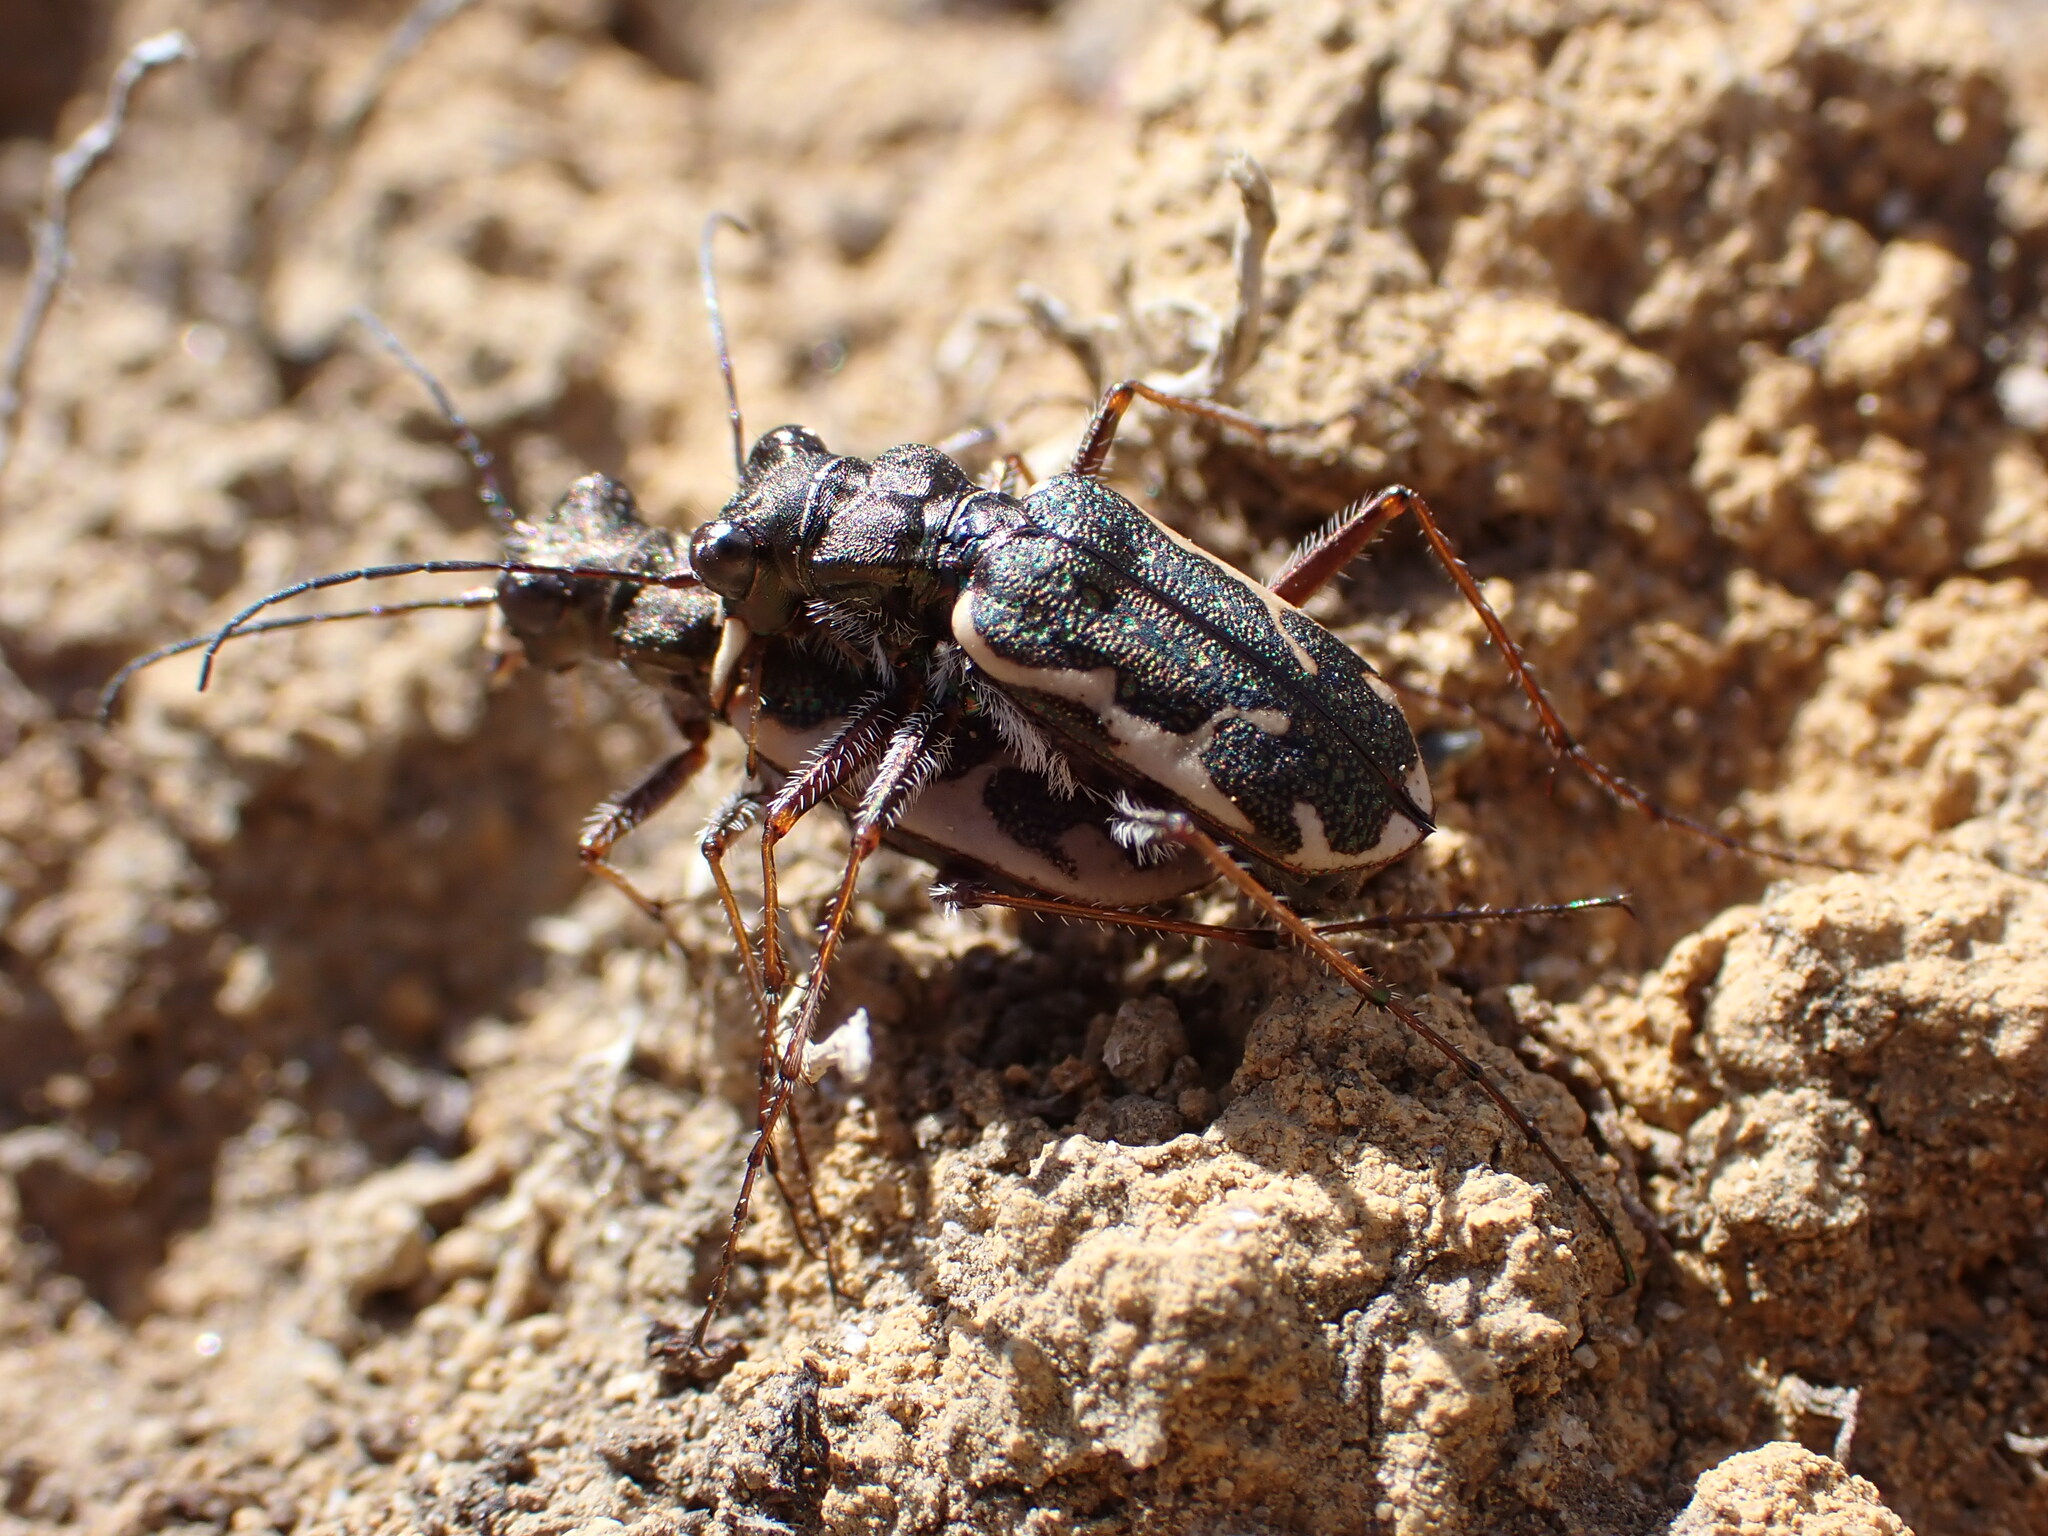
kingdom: Animalia
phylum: Arthropoda
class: Insecta
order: Coleoptera
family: Carabidae
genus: Neocicindela
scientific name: Neocicindela tuberculata
